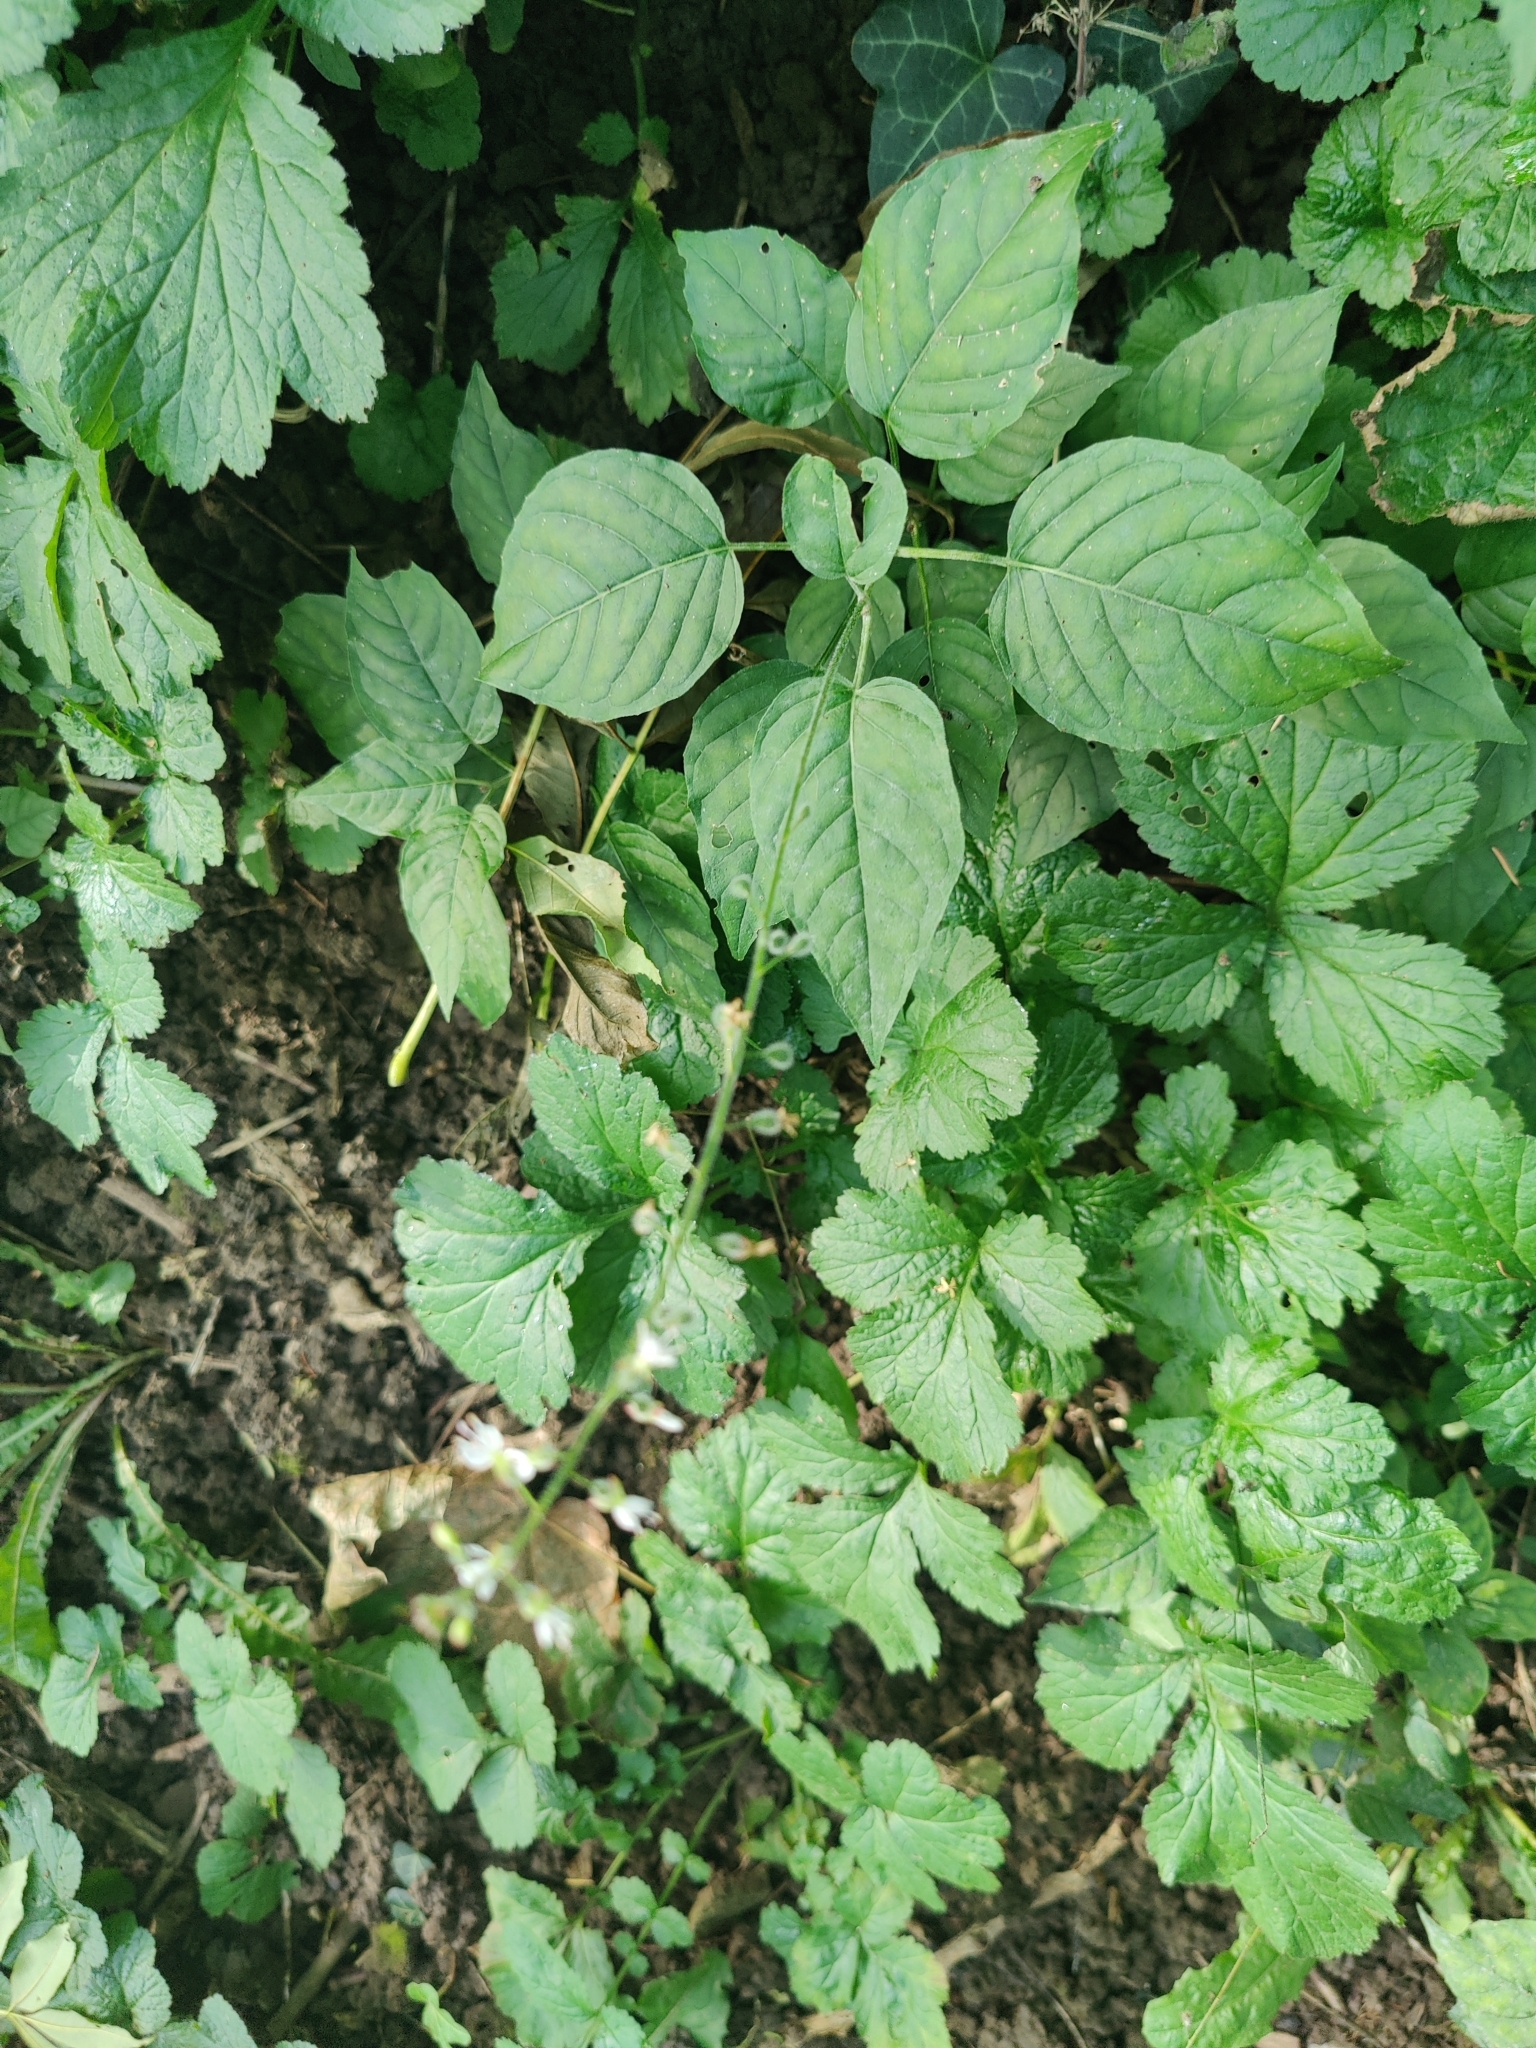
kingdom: Plantae
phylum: Tracheophyta
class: Magnoliopsida
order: Myrtales
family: Onagraceae
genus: Circaea
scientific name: Circaea lutetiana
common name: Enchanter's-nightshade
